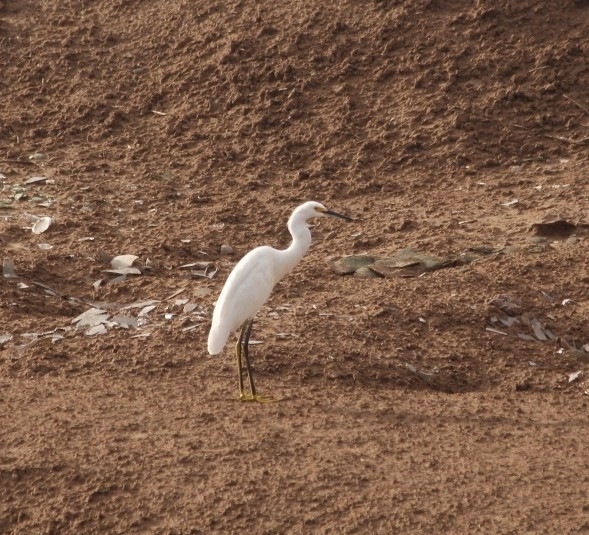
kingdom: Animalia
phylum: Chordata
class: Aves
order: Pelecaniformes
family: Ardeidae
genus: Egretta
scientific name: Egretta thula
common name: Snowy egret
